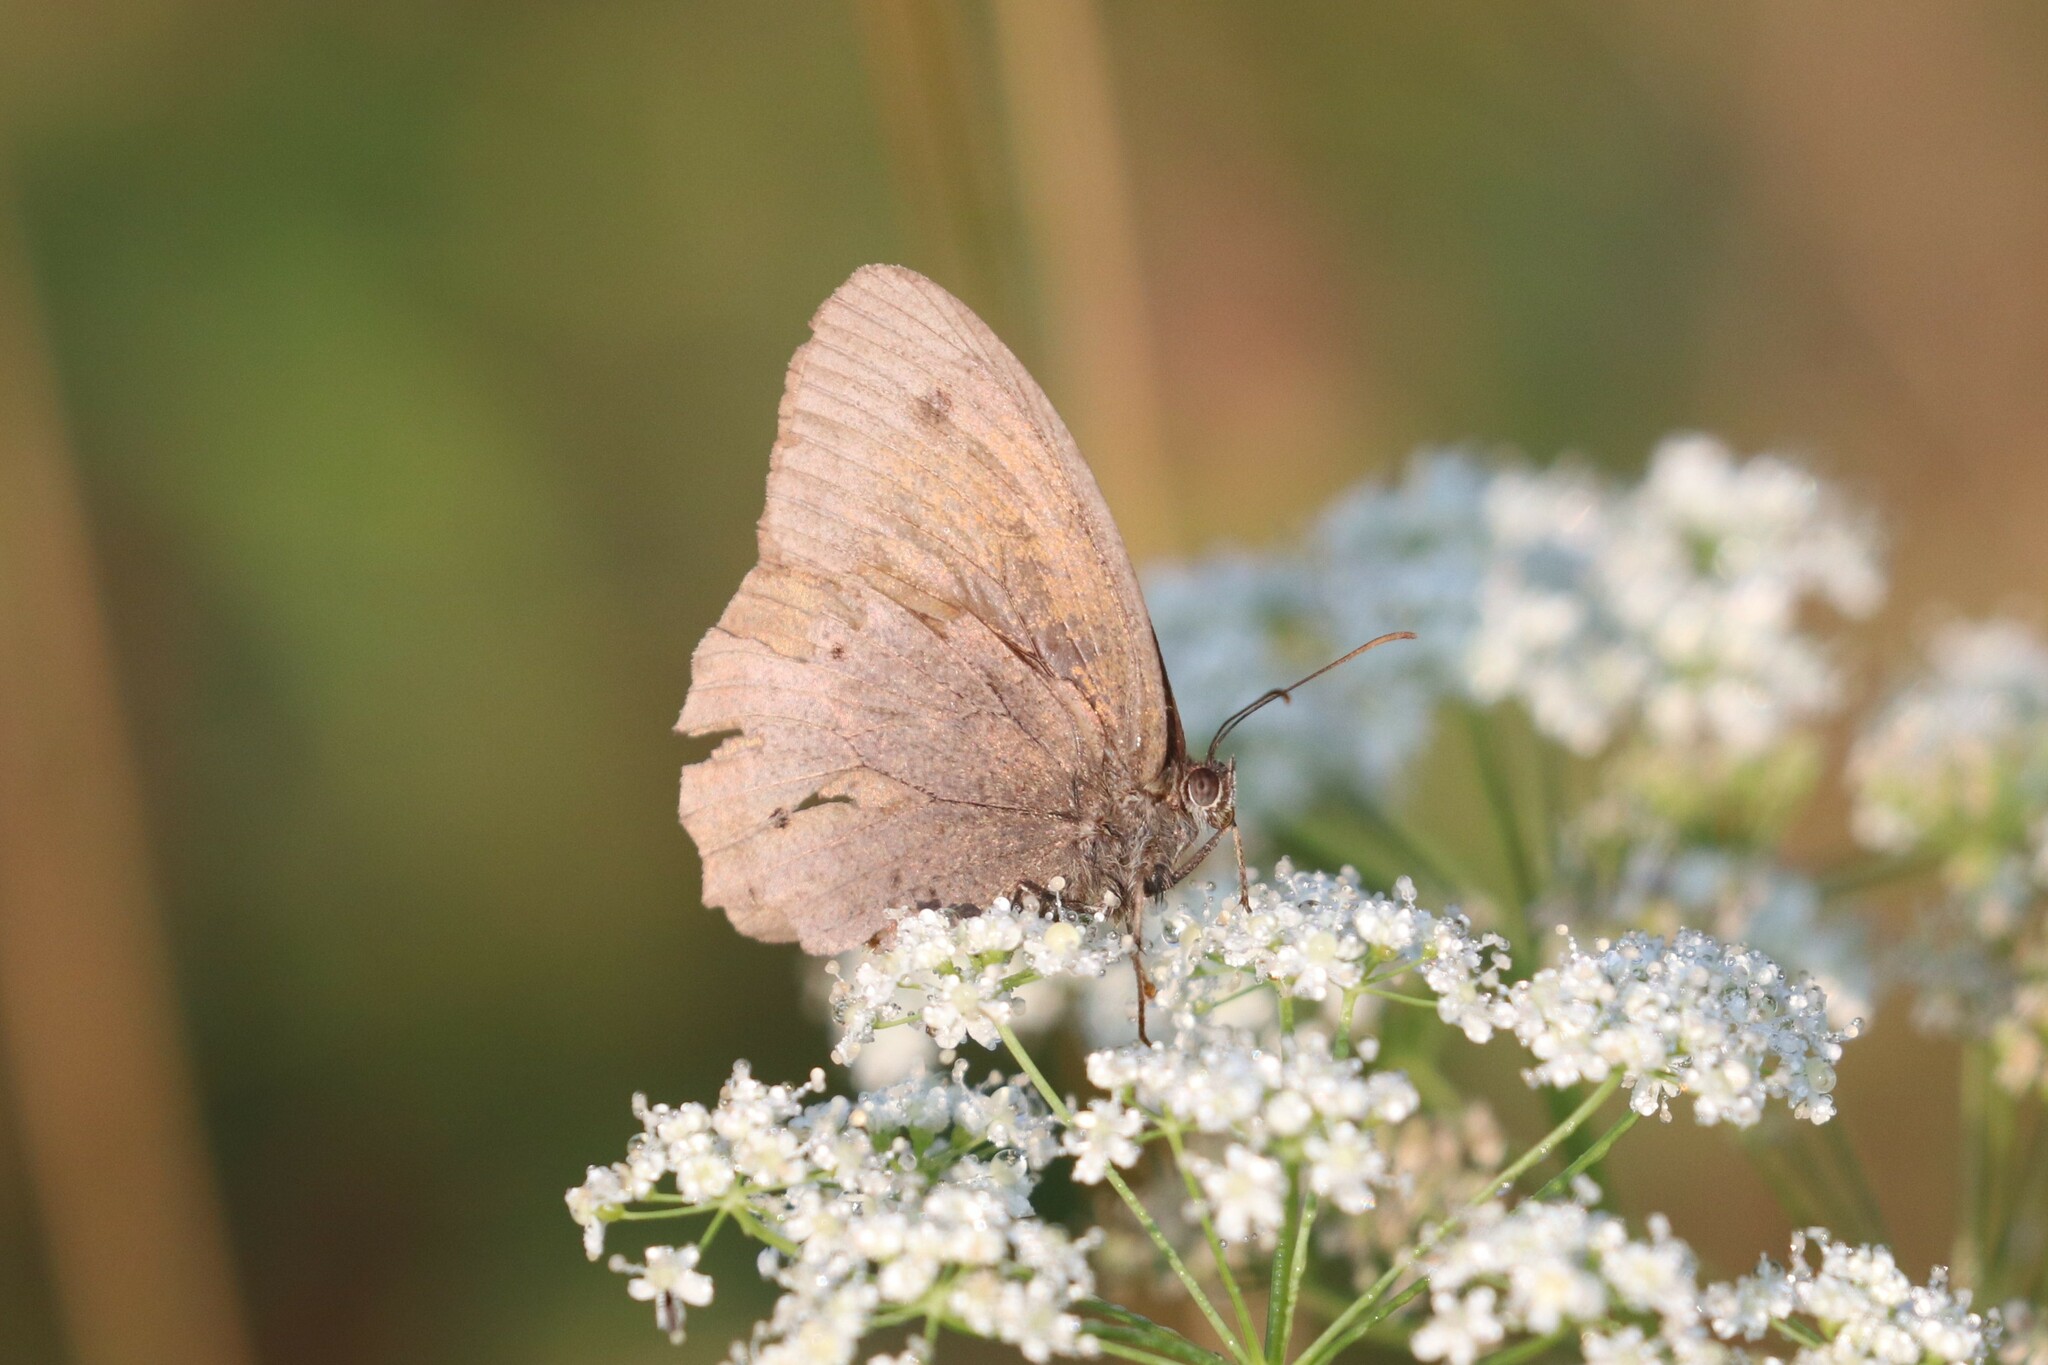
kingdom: Animalia
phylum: Arthropoda
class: Insecta
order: Lepidoptera
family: Nymphalidae
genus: Maniola
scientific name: Maniola jurtina
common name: Meadow brown
